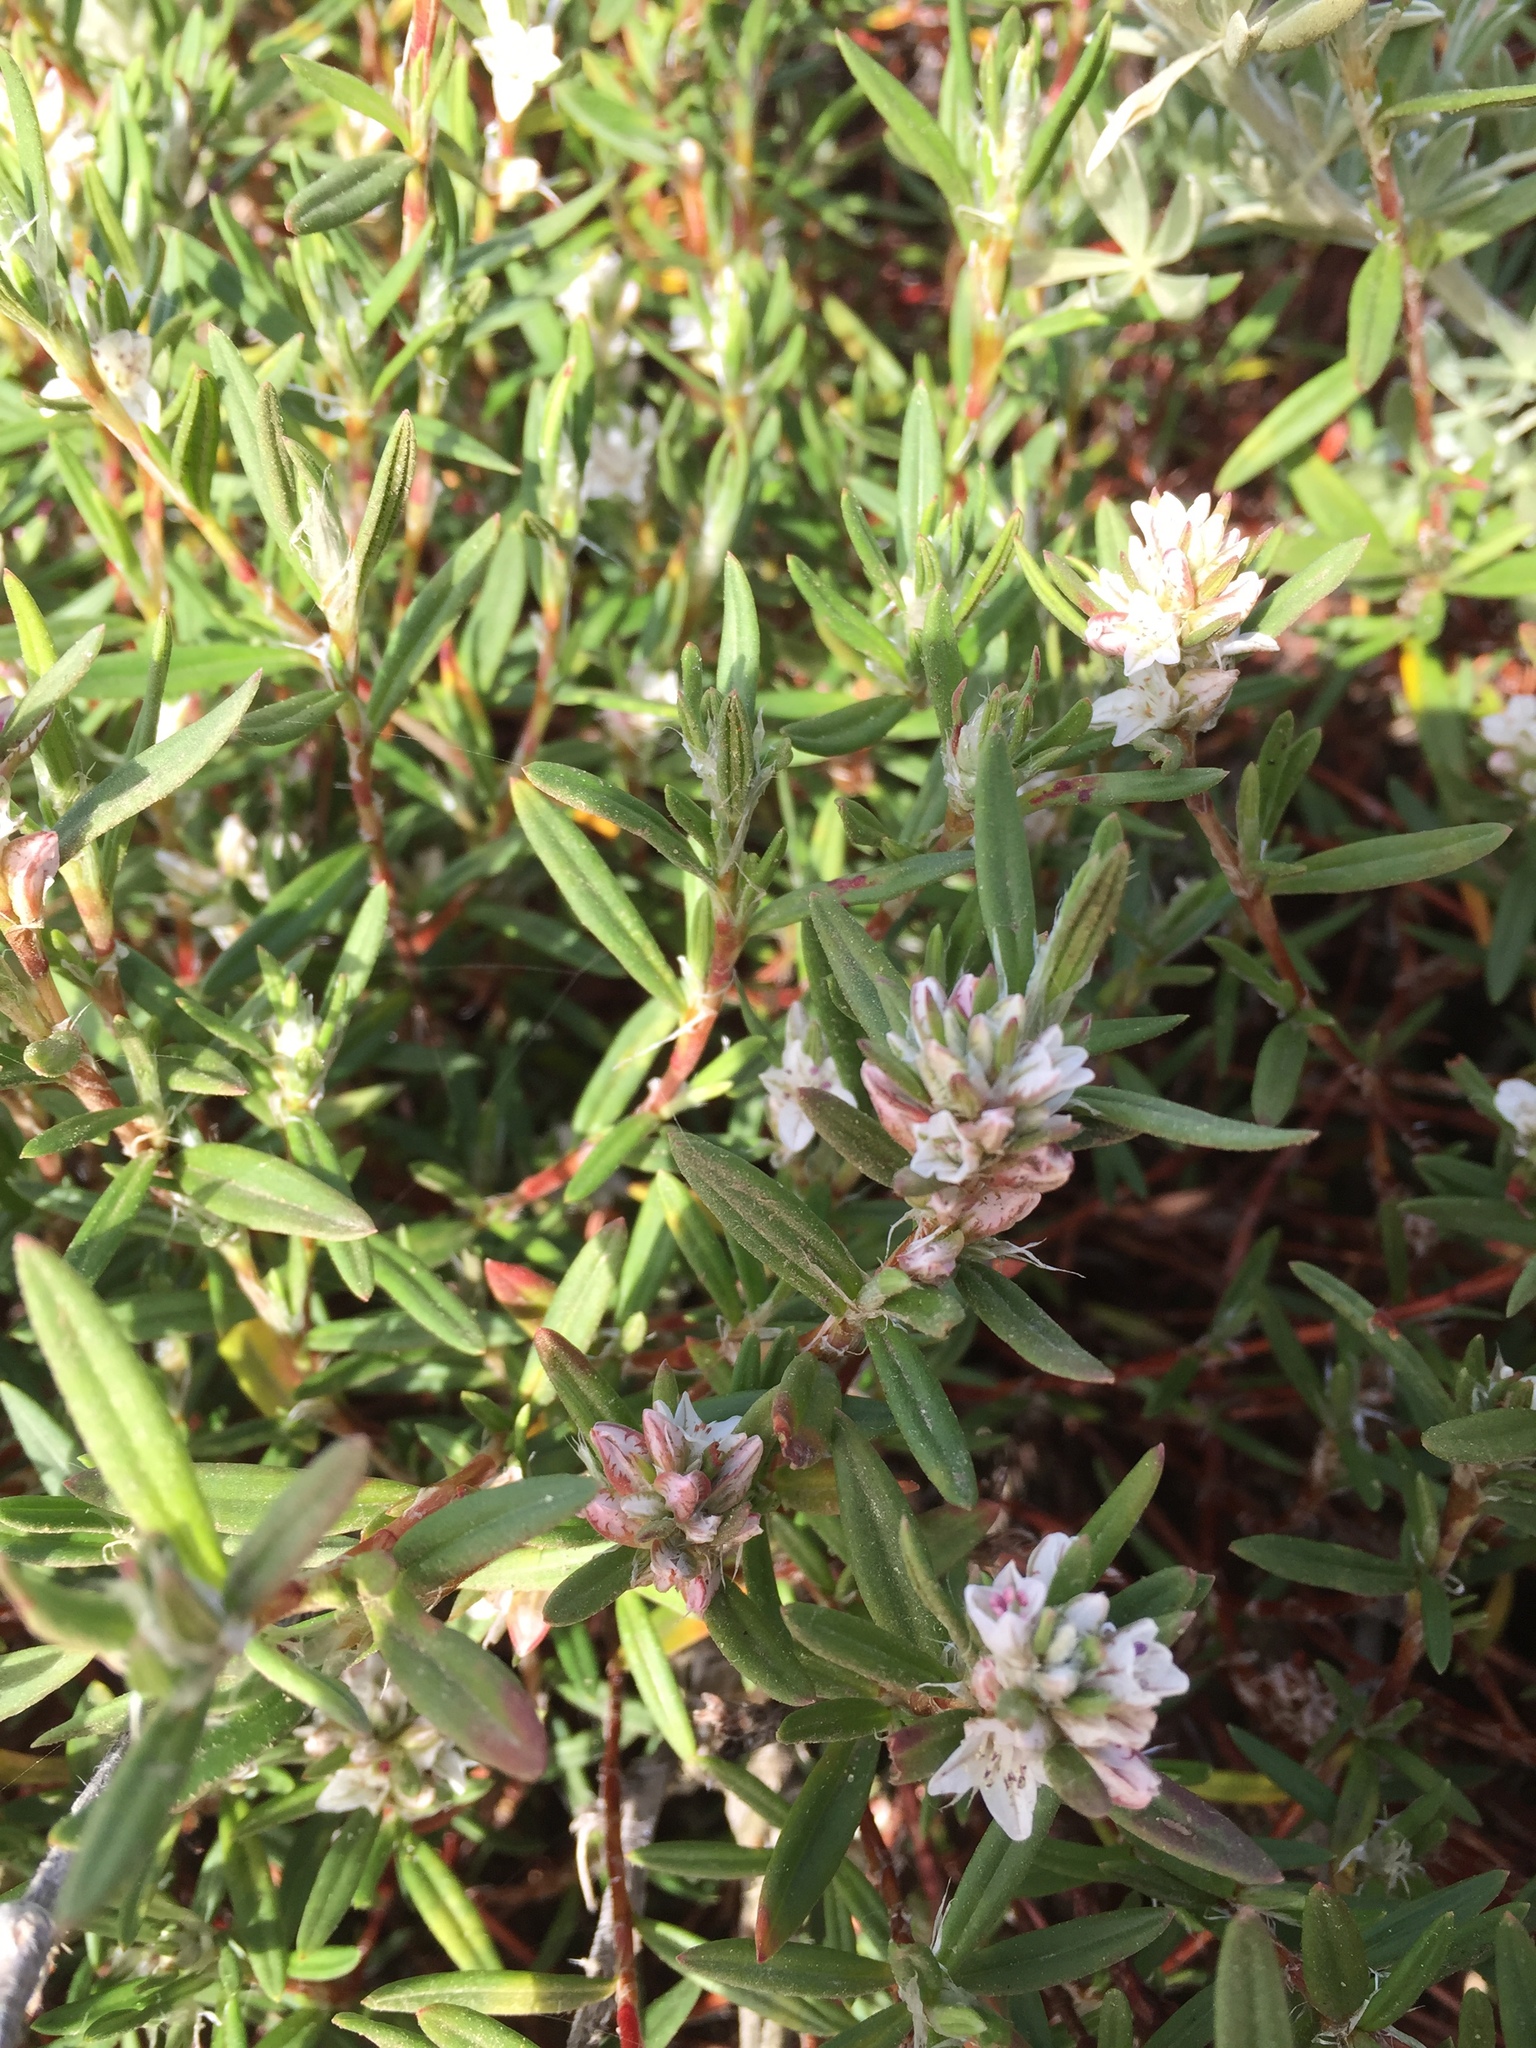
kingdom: Plantae
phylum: Tracheophyta
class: Magnoliopsida
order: Caryophyllales
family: Polygonaceae
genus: Polygonum
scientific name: Polygonum paronychia
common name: Dune knotweed
